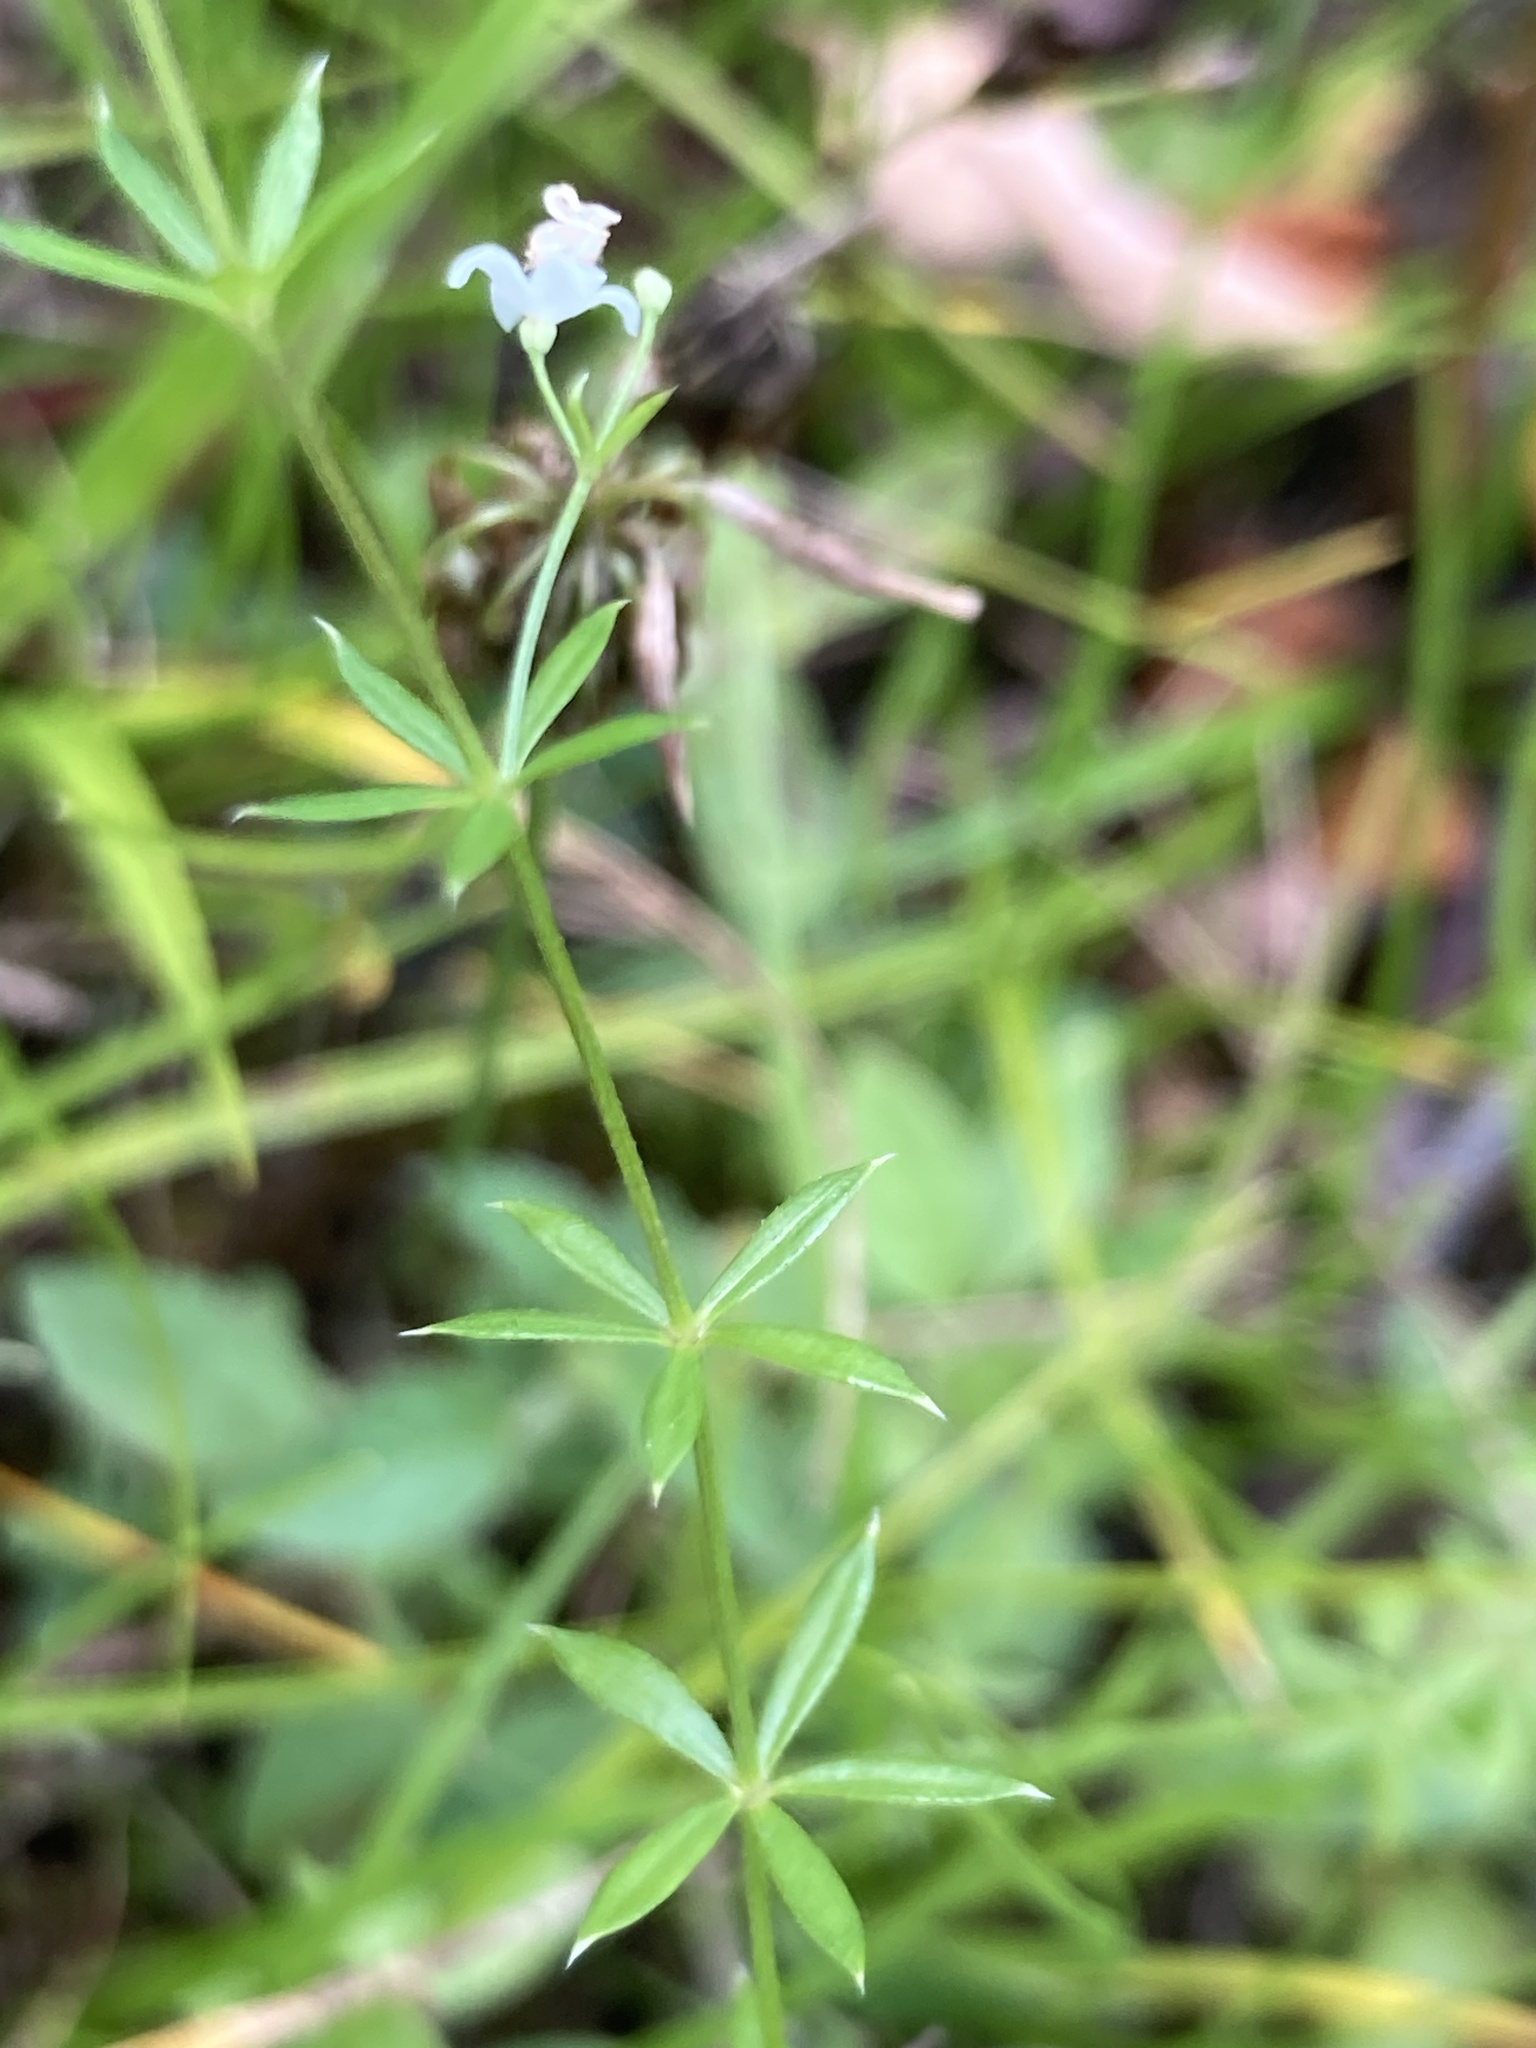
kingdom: Plantae
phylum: Tracheophyta
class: Magnoliopsida
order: Gentianales
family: Rubiaceae
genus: Sherardia
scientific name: Sherardia arvensis
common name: Field madder
